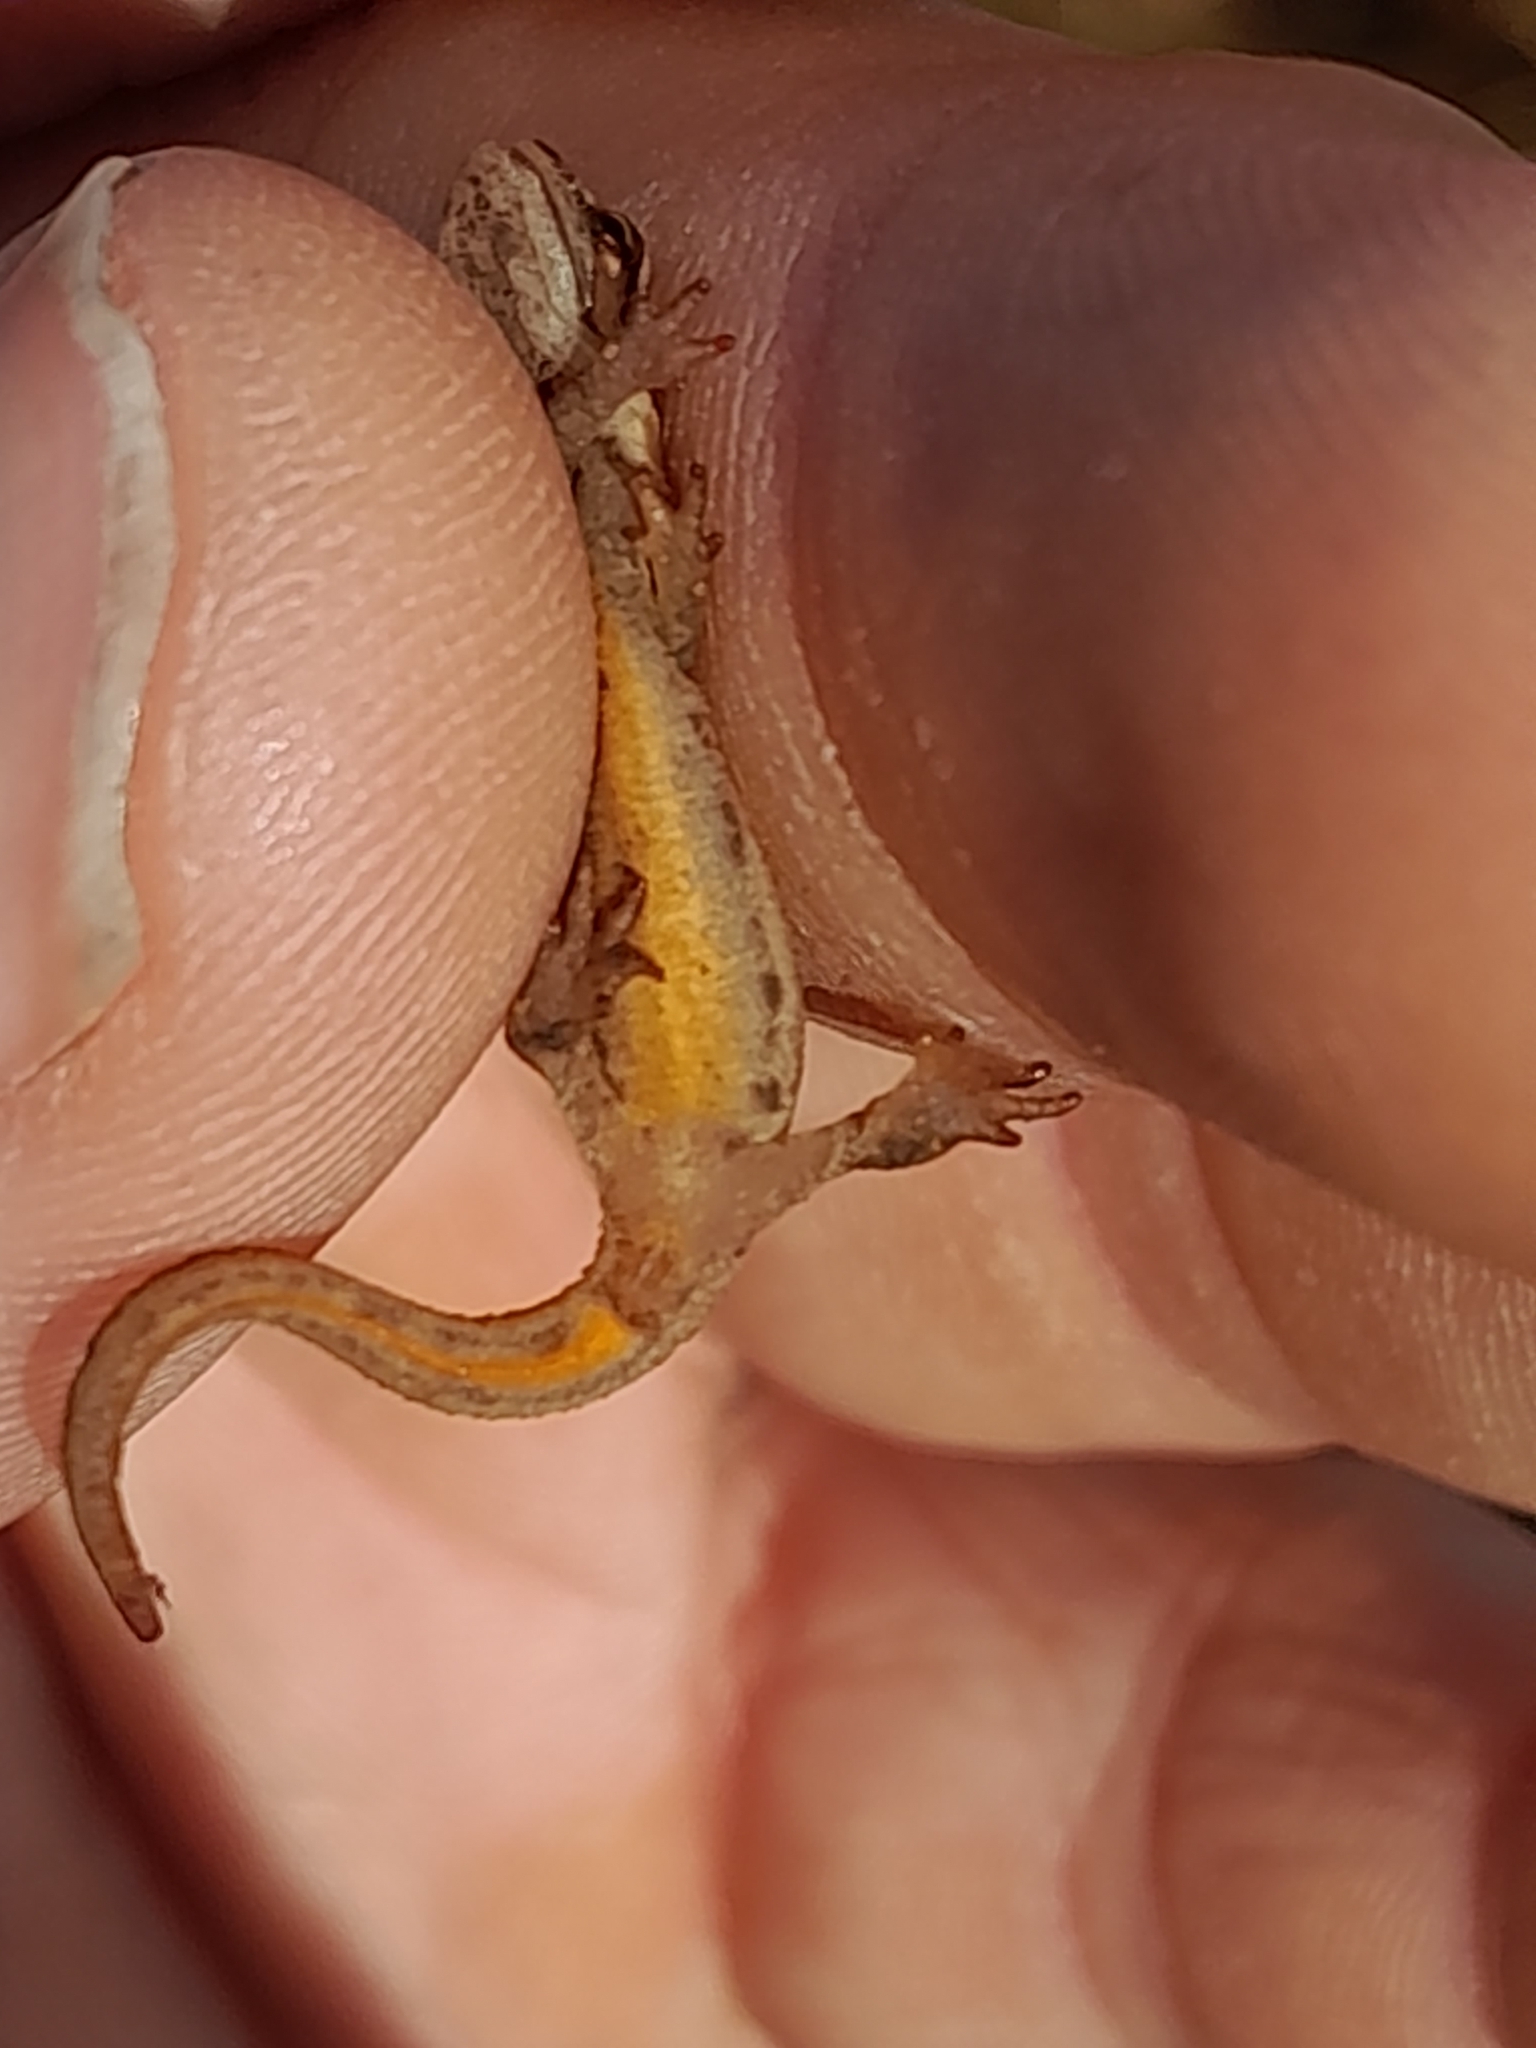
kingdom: Animalia
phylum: Chordata
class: Amphibia
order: Caudata
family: Salamandridae
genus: Lissotriton
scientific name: Lissotriton vulgaris
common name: Smooth newt
